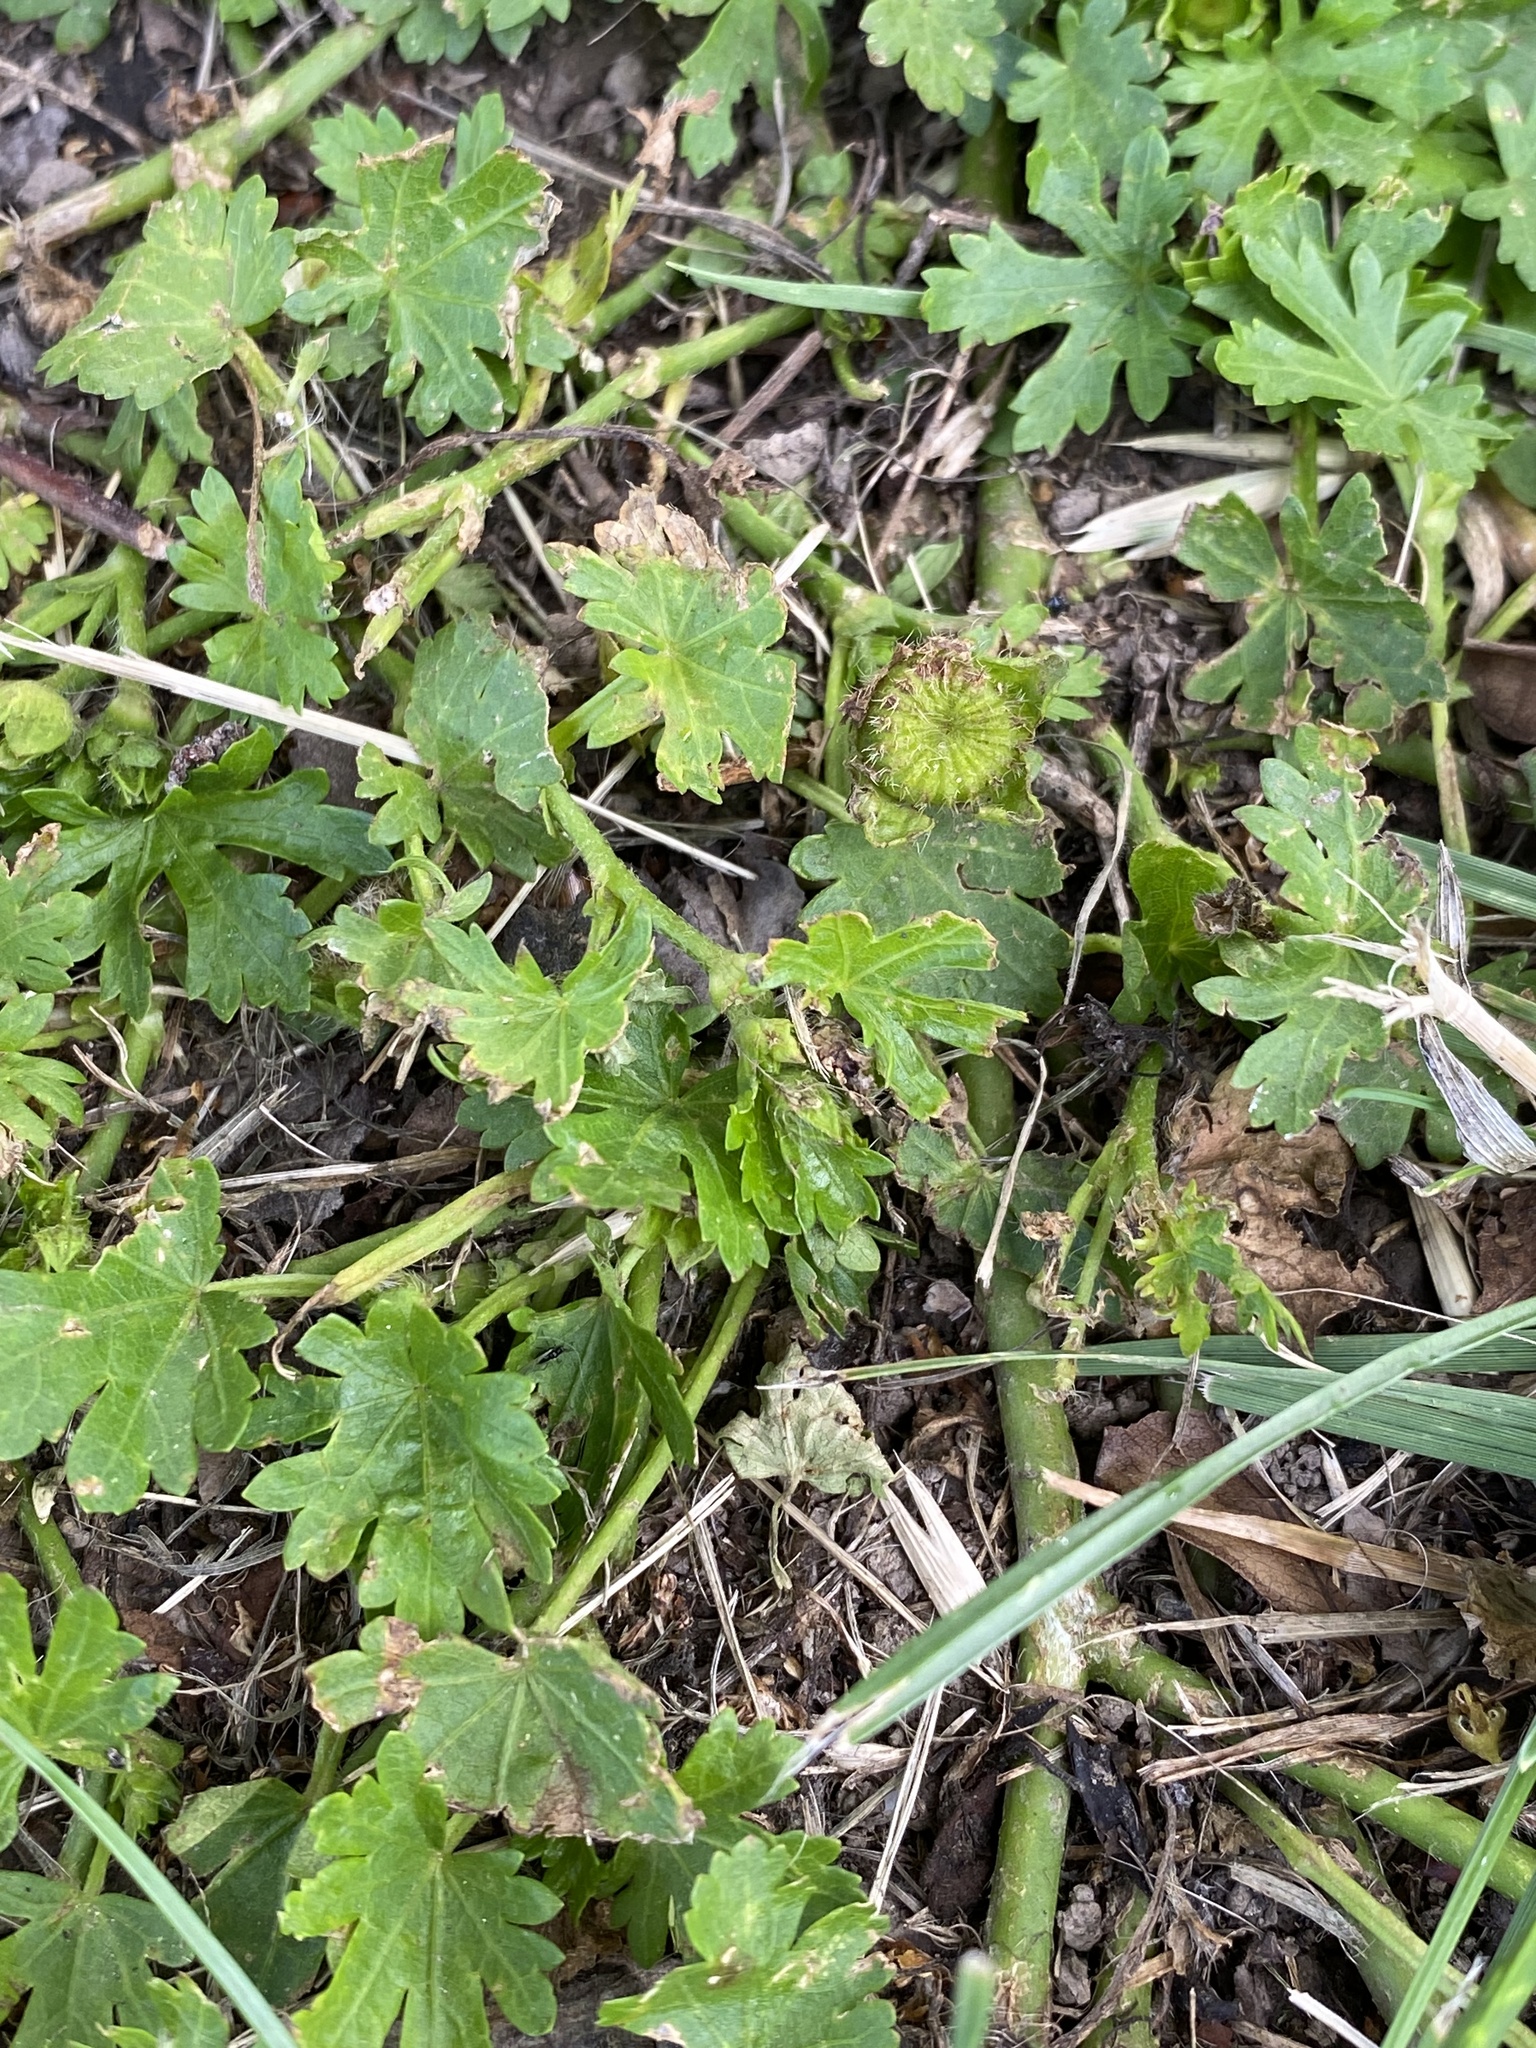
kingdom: Plantae
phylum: Tracheophyta
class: Magnoliopsida
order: Malvales
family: Malvaceae
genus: Modiola
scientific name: Modiola caroliniana
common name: Carolina bristlemallow
